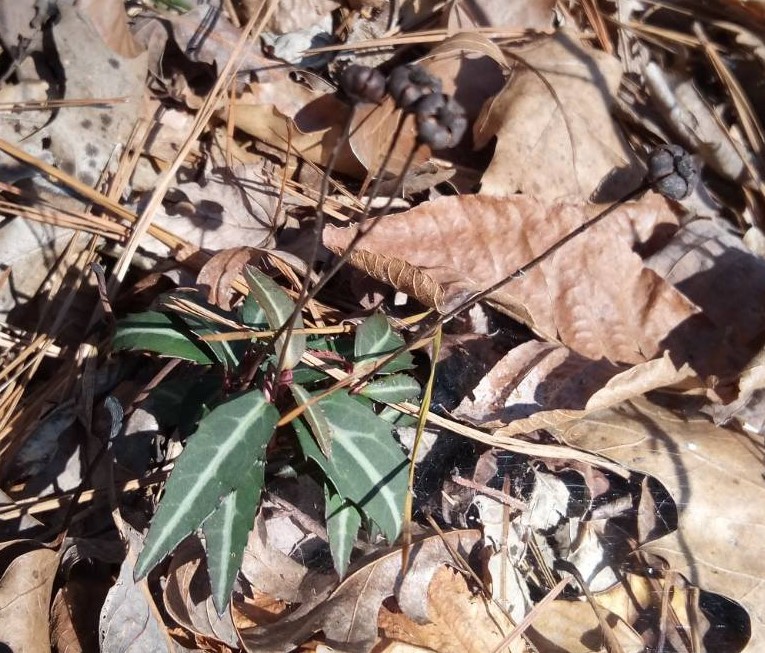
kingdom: Plantae
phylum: Tracheophyta
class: Magnoliopsida
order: Ericales
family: Ericaceae
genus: Chimaphila
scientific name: Chimaphila maculata
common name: Spotted pipsissewa
